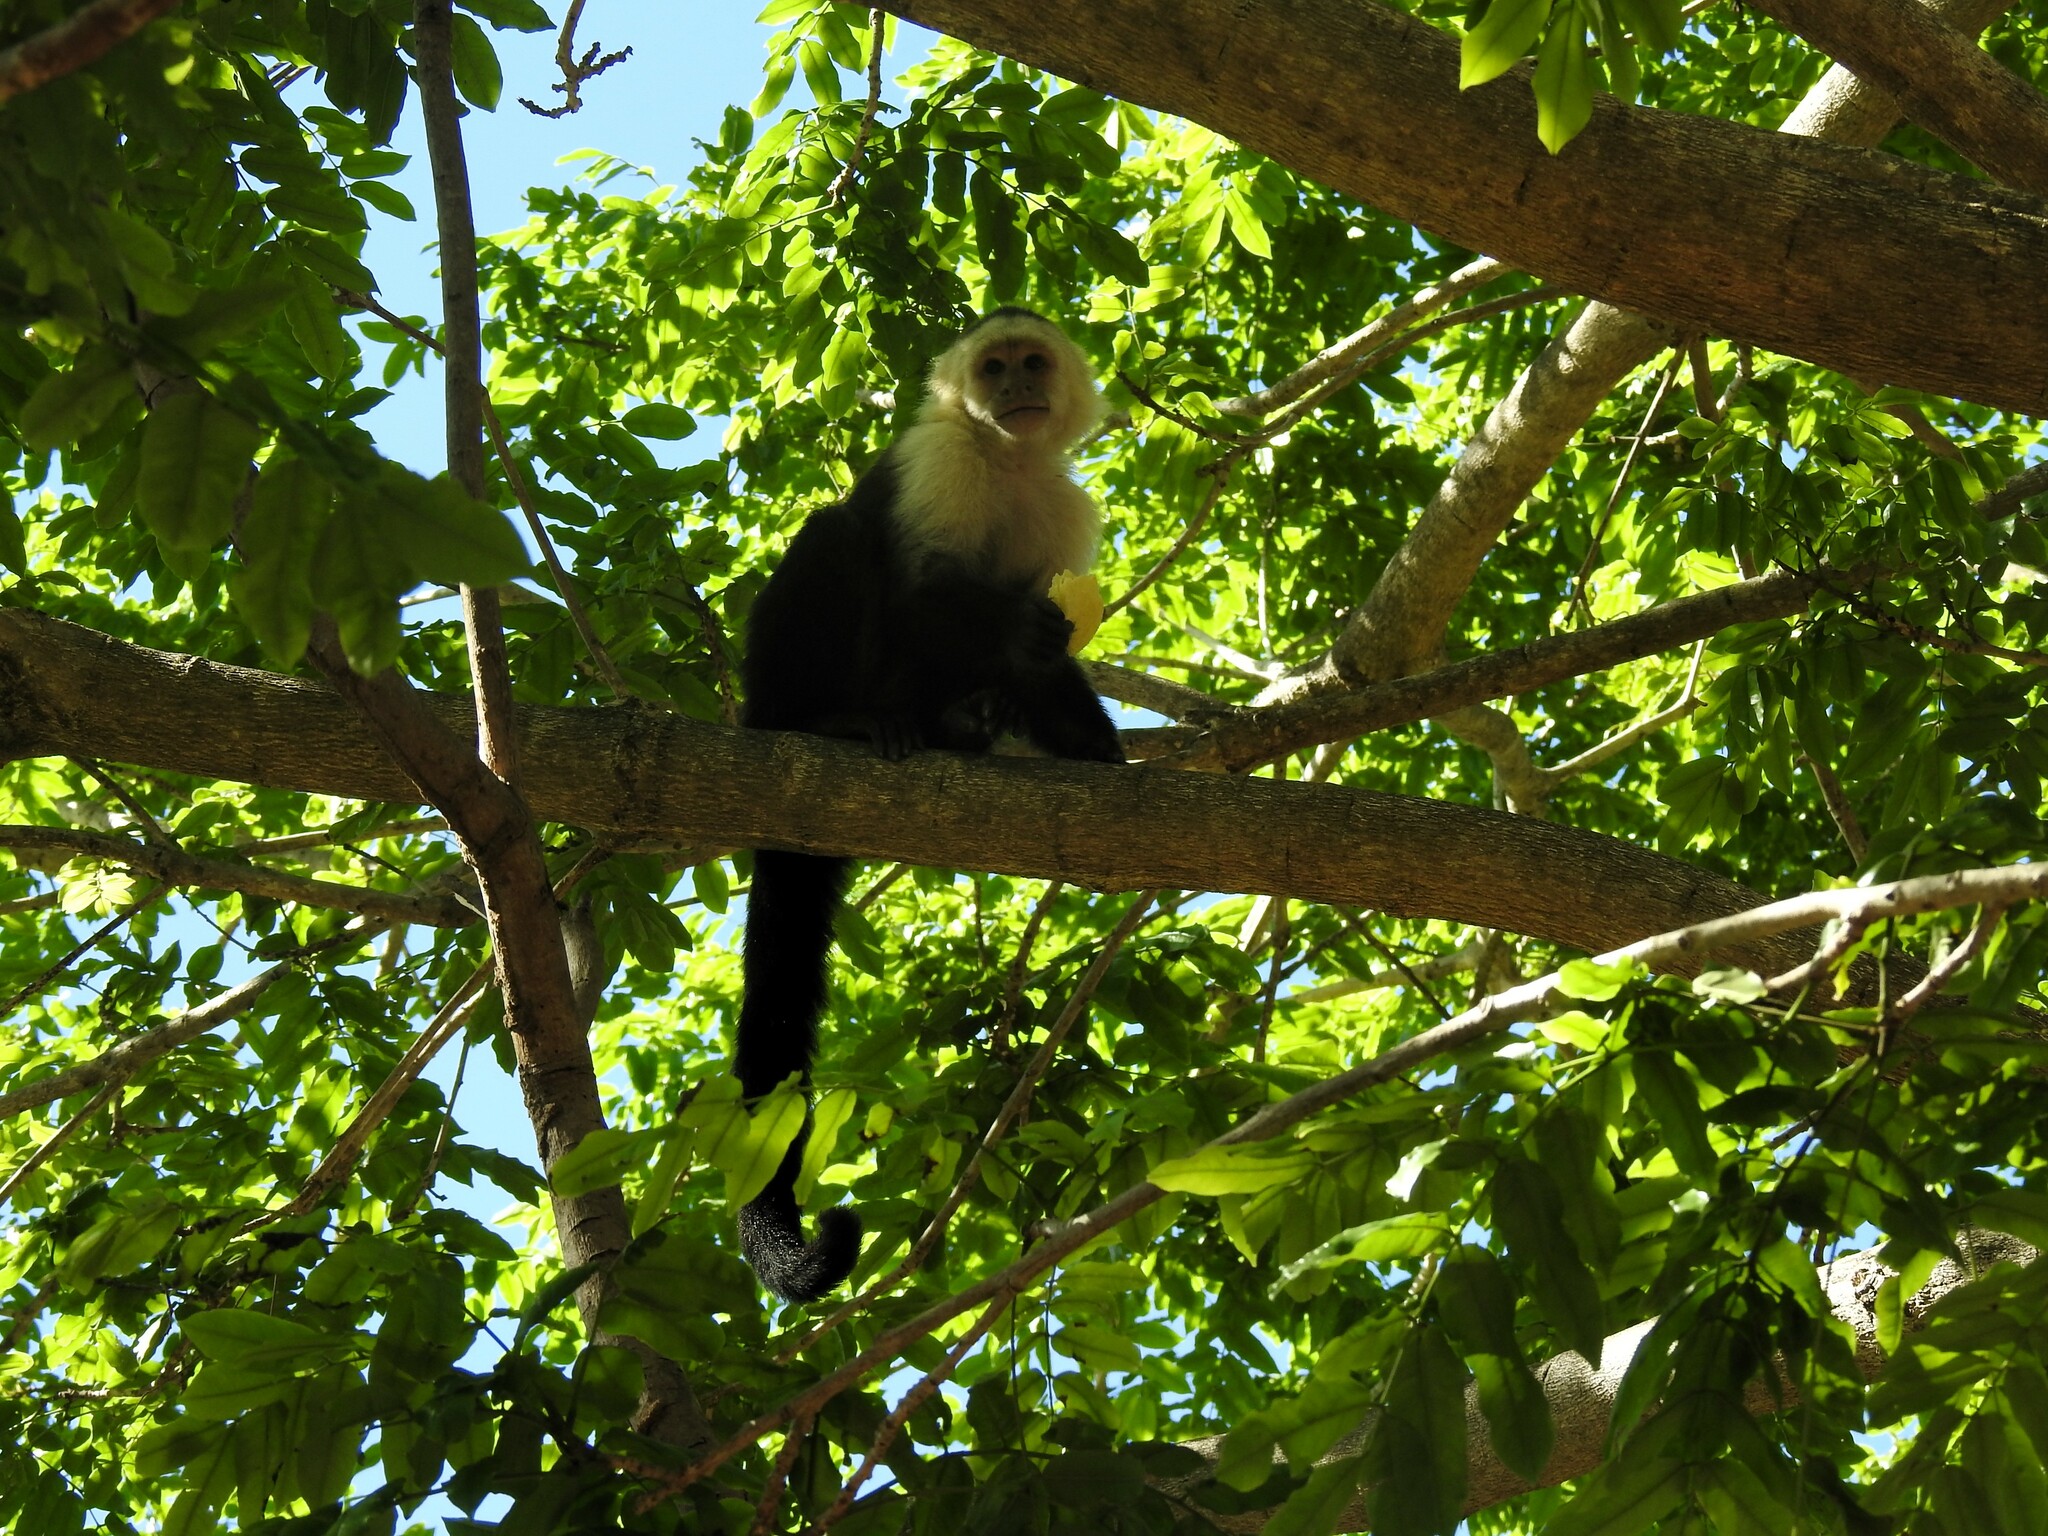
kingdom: Animalia
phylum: Chordata
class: Mammalia
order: Primates
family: Cebidae
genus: Cebus
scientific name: Cebus imitator
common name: Panamanian white-faced capuchin
